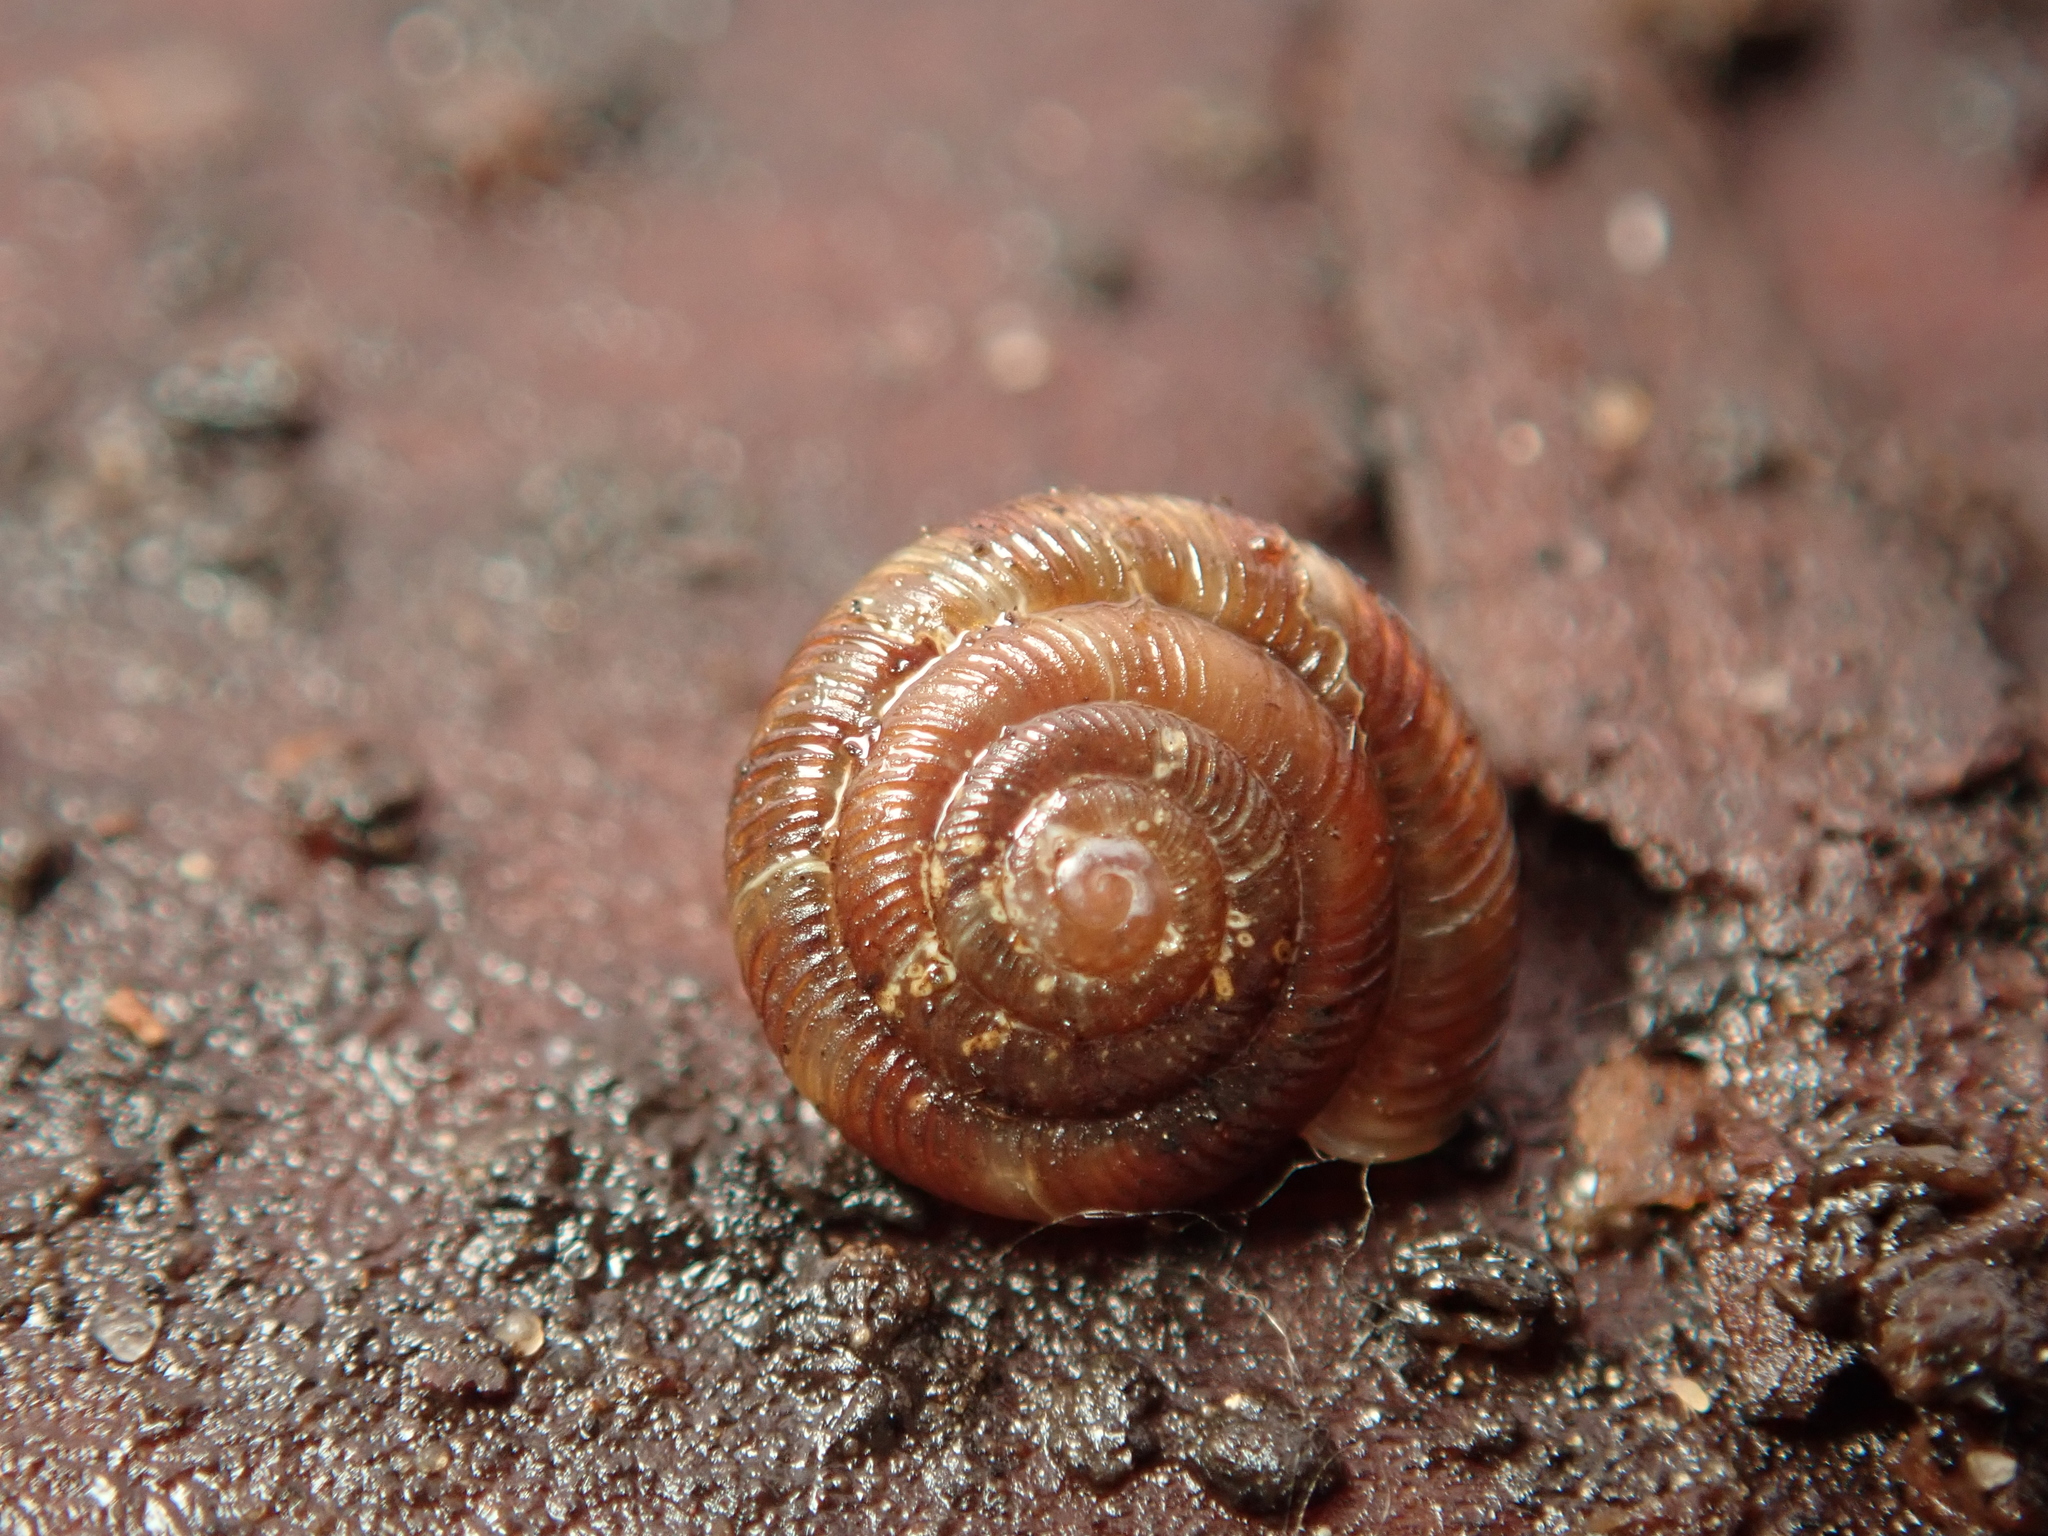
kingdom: Animalia
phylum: Mollusca
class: Gastropoda
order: Stylommatophora
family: Discidae
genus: Discus
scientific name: Discus rotundatus
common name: Rounded snail
